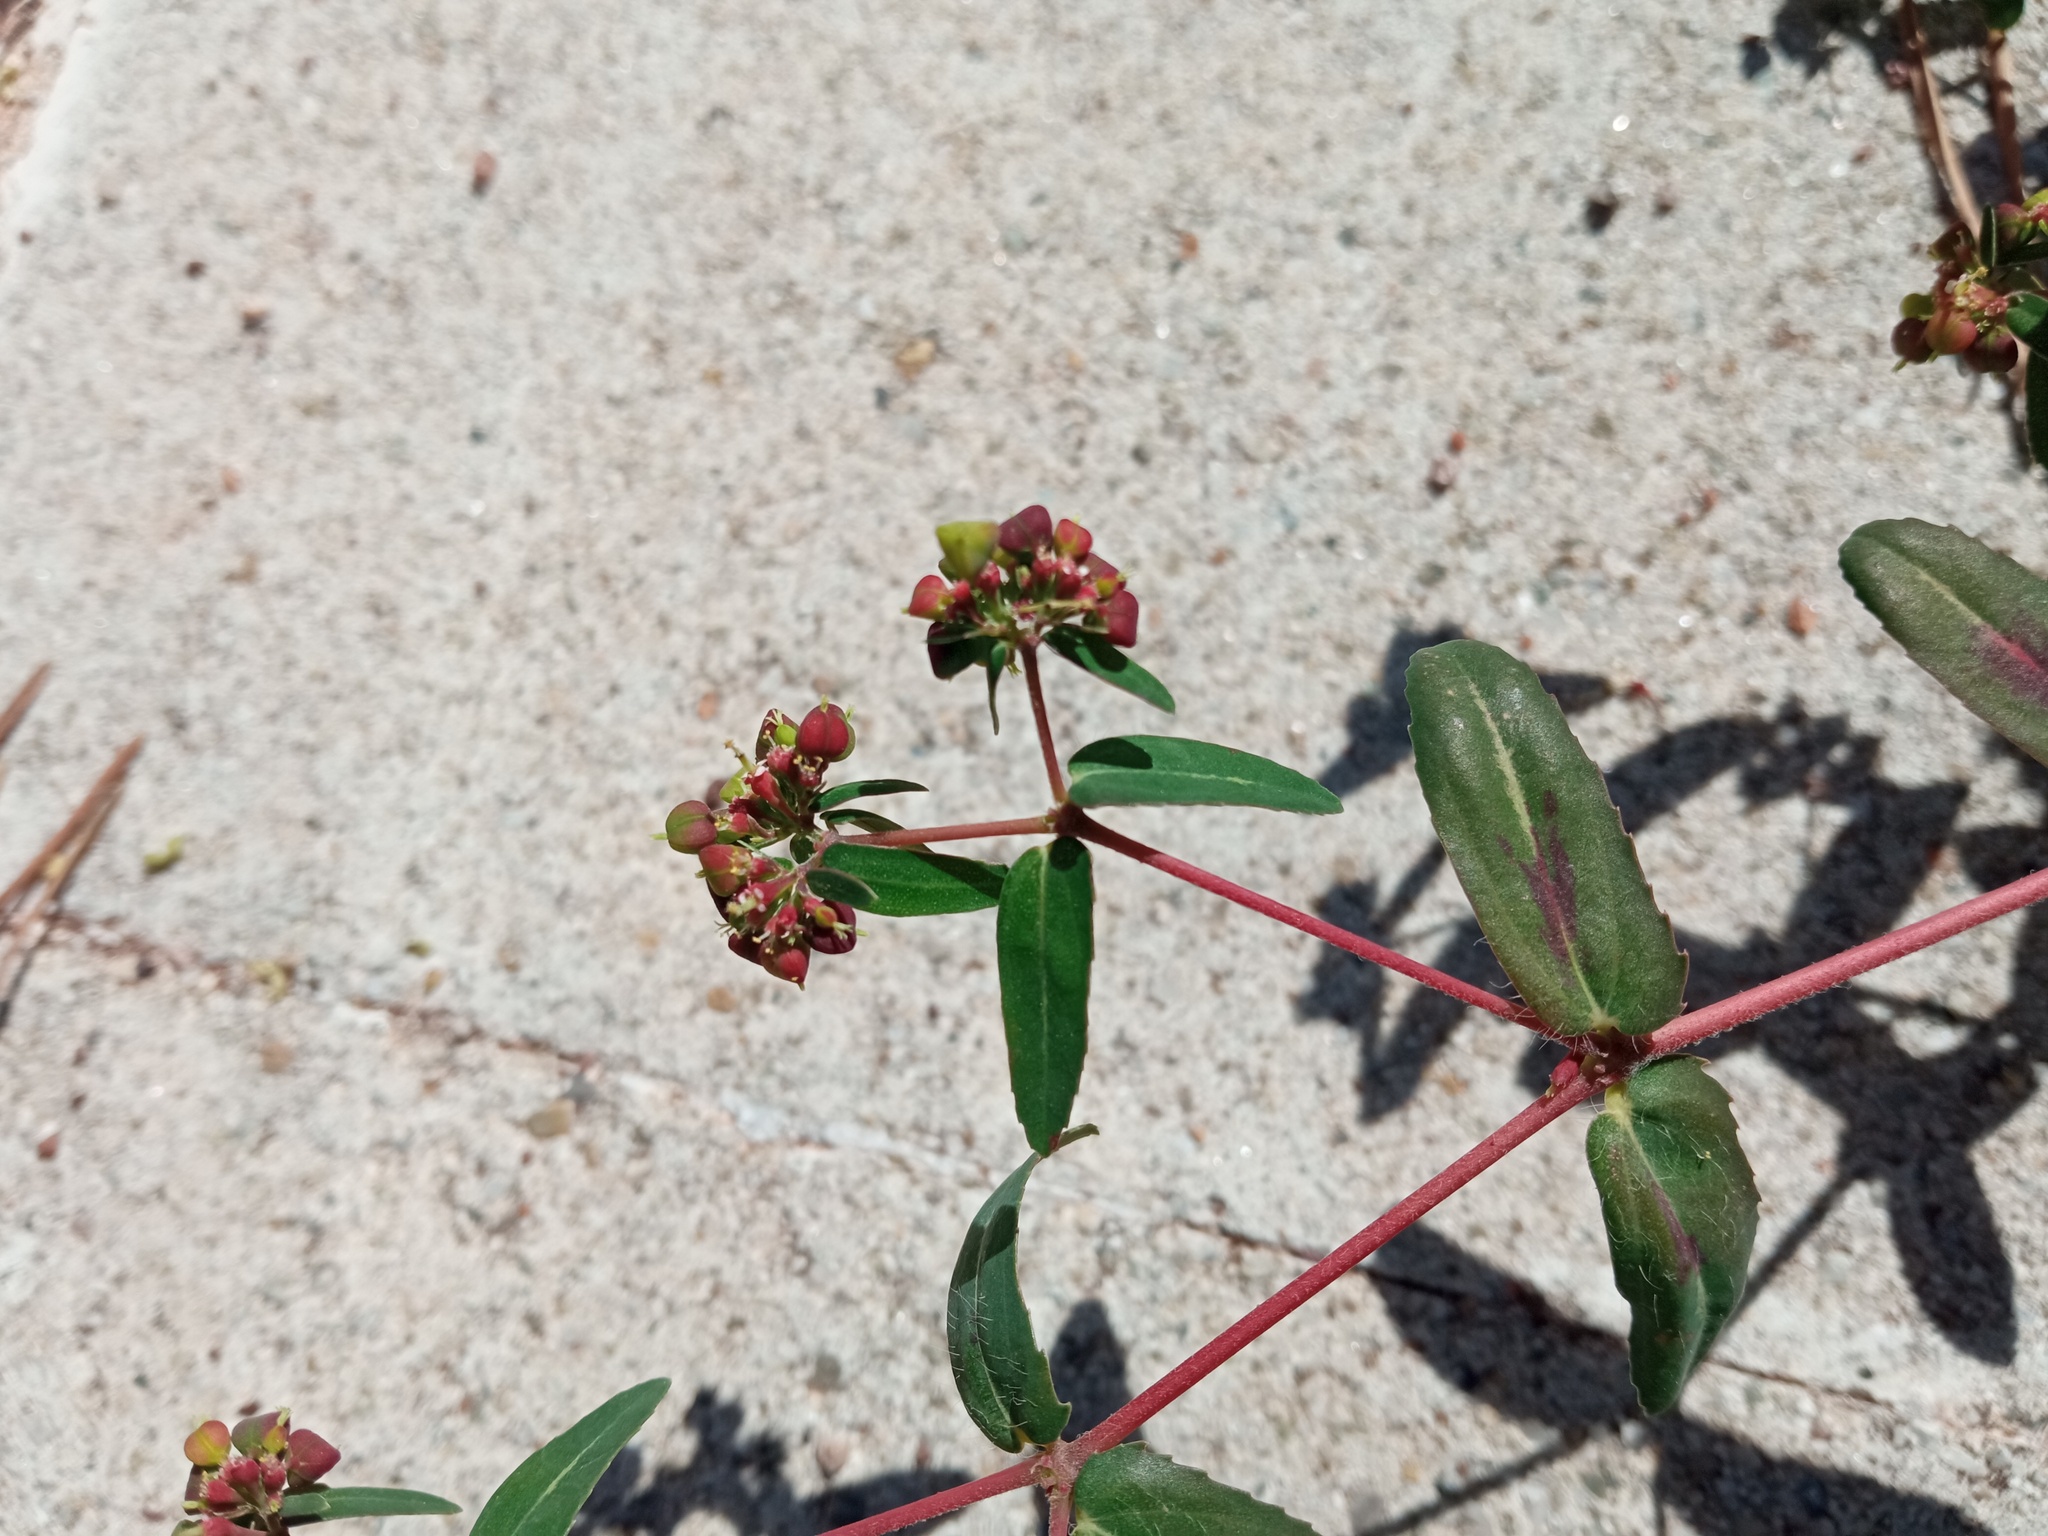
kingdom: Plantae
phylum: Tracheophyta
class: Magnoliopsida
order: Malpighiales
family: Euphorbiaceae
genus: Euphorbia
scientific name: Euphorbia nutans
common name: Eyebane
